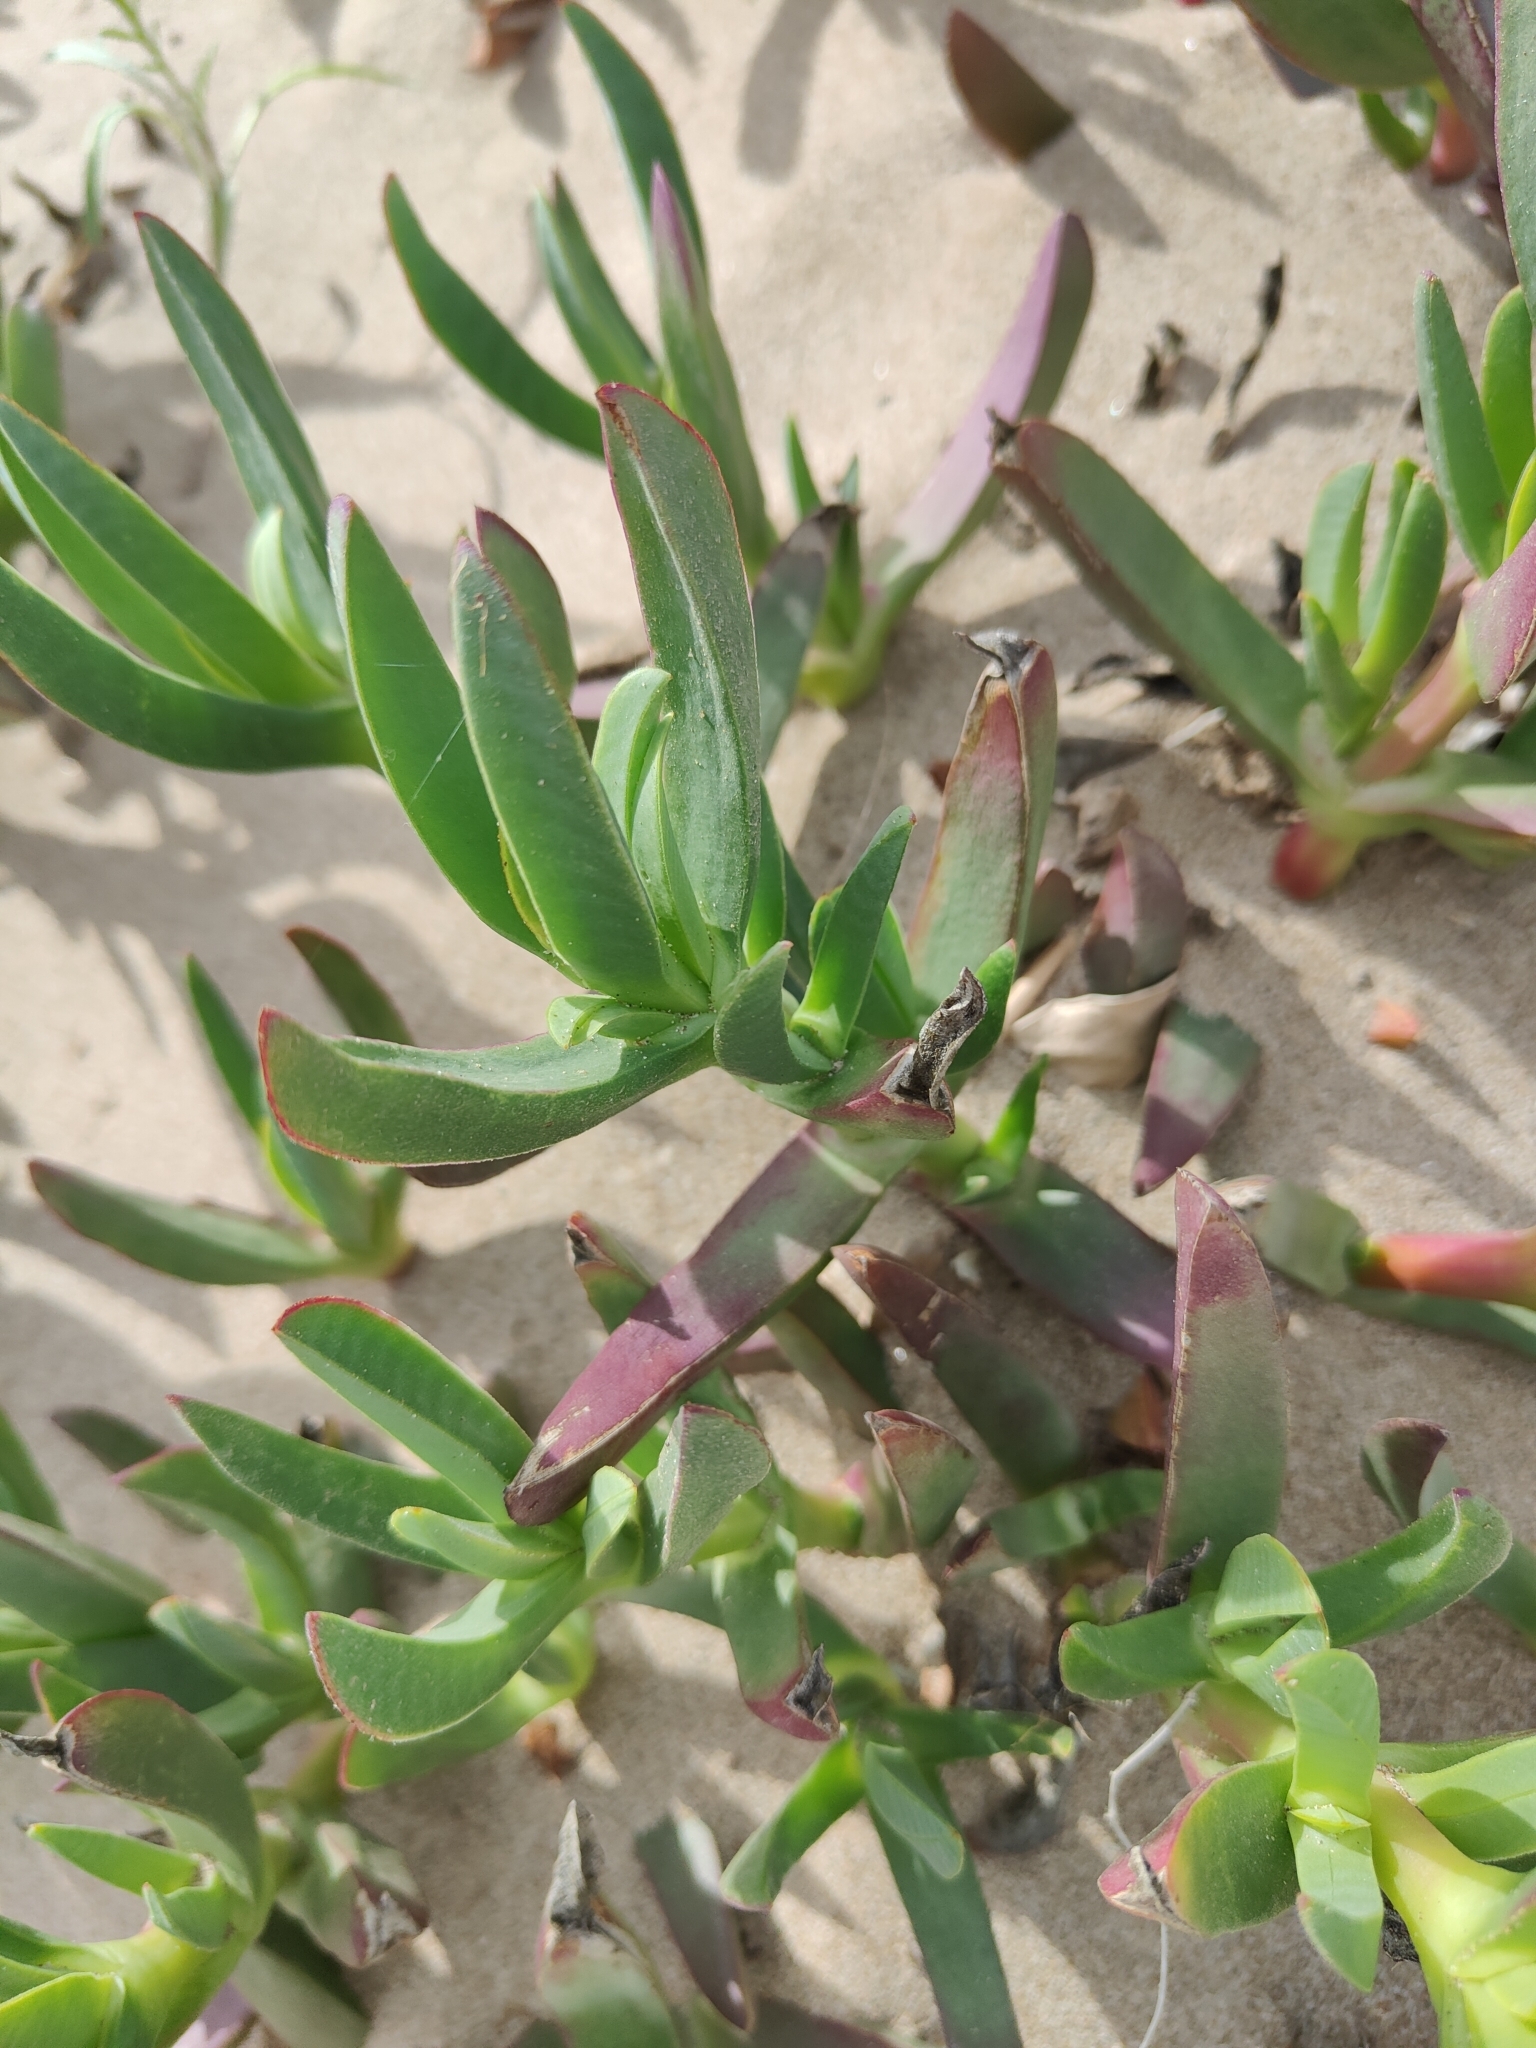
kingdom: Plantae
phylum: Tracheophyta
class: Magnoliopsida
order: Caryophyllales
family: Aizoaceae
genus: Carpobrotus
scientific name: Carpobrotus edulis
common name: Hottentot-fig
